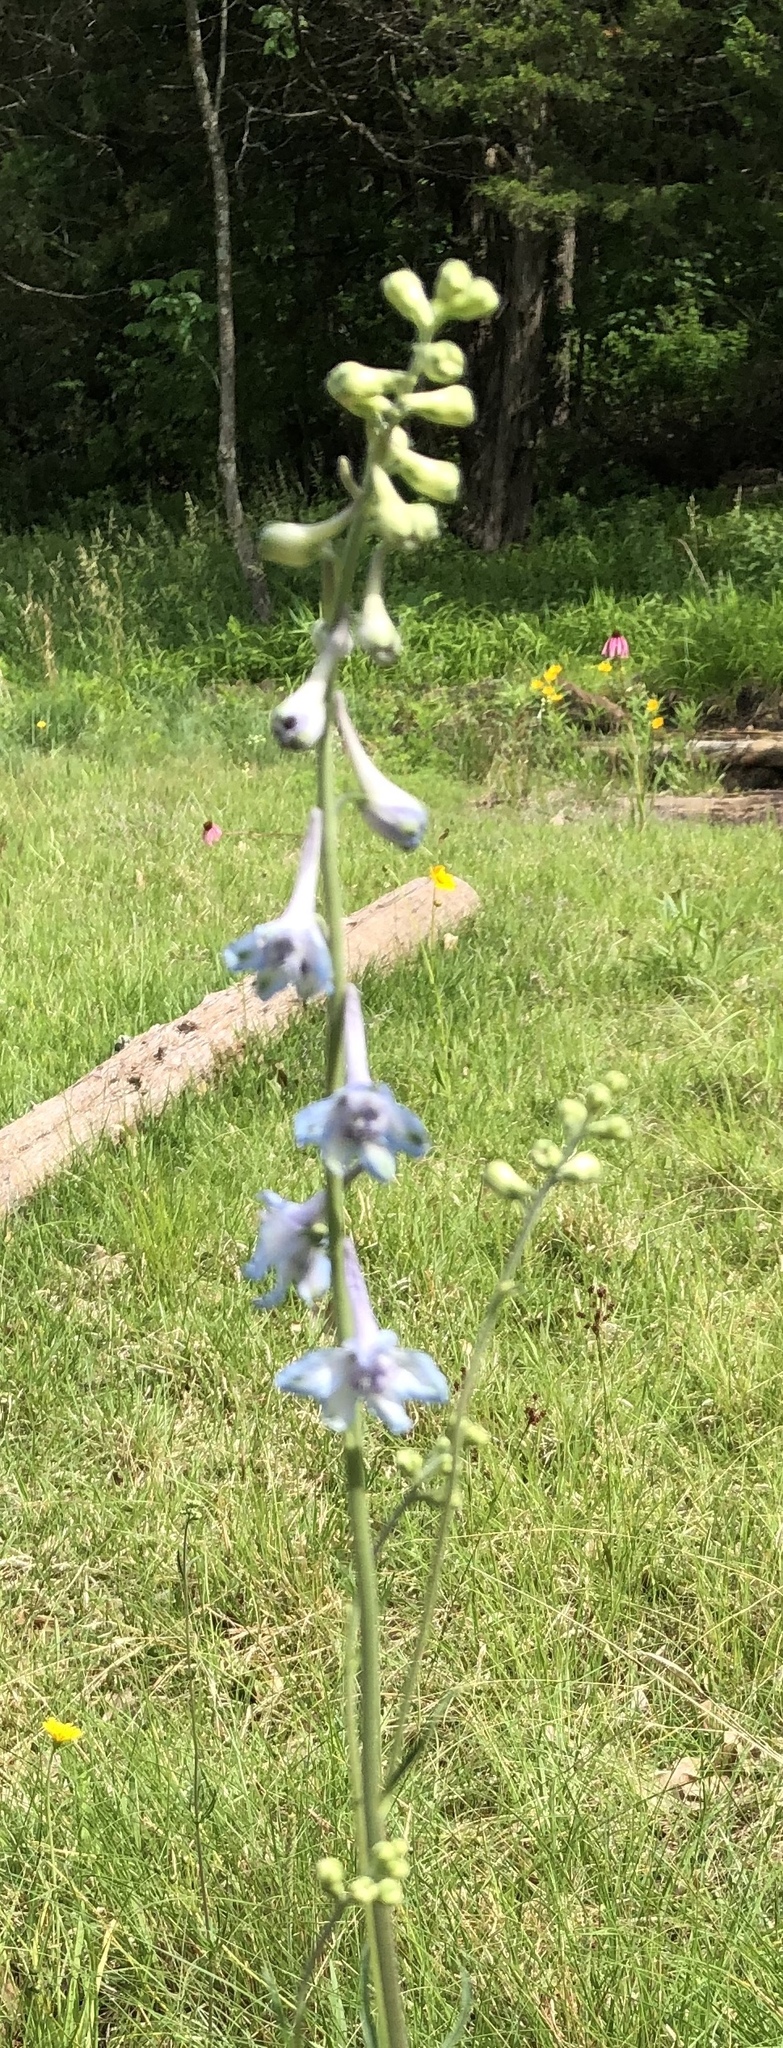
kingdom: Plantae
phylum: Tracheophyta
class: Magnoliopsida
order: Ranunculales
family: Ranunculaceae
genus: Delphinium
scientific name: Delphinium carolinianum
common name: Carolina larkspur
